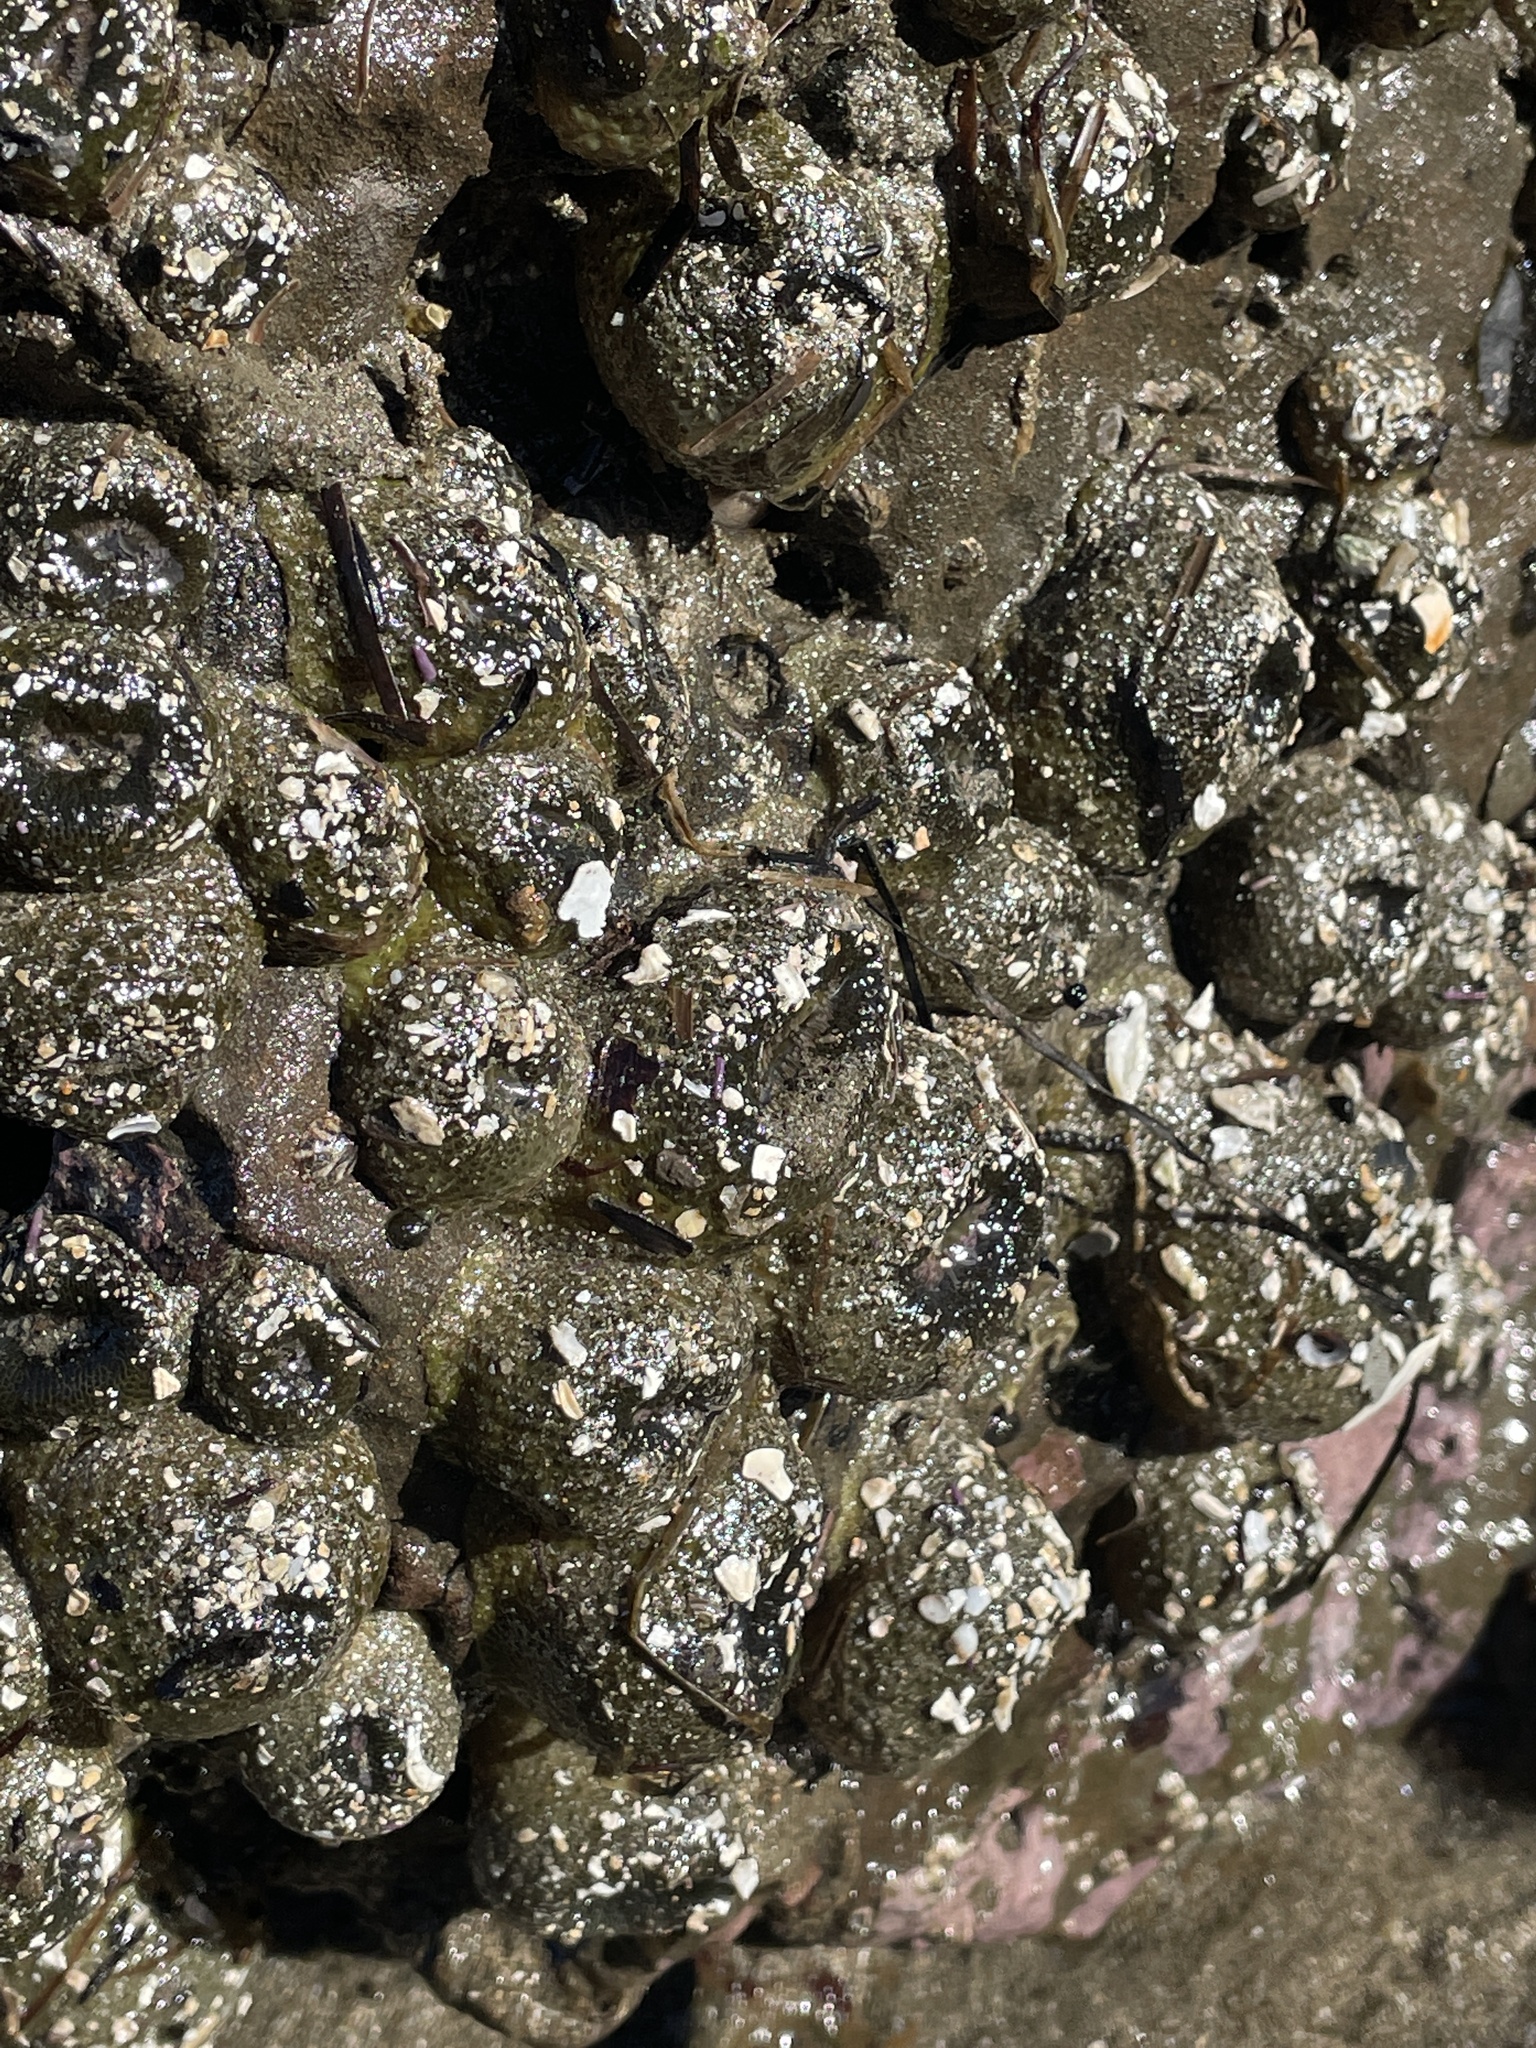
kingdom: Animalia
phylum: Cnidaria
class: Anthozoa
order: Actiniaria
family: Actiniidae
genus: Anthopleura
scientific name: Anthopleura elegantissima
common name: Clonal anemone
